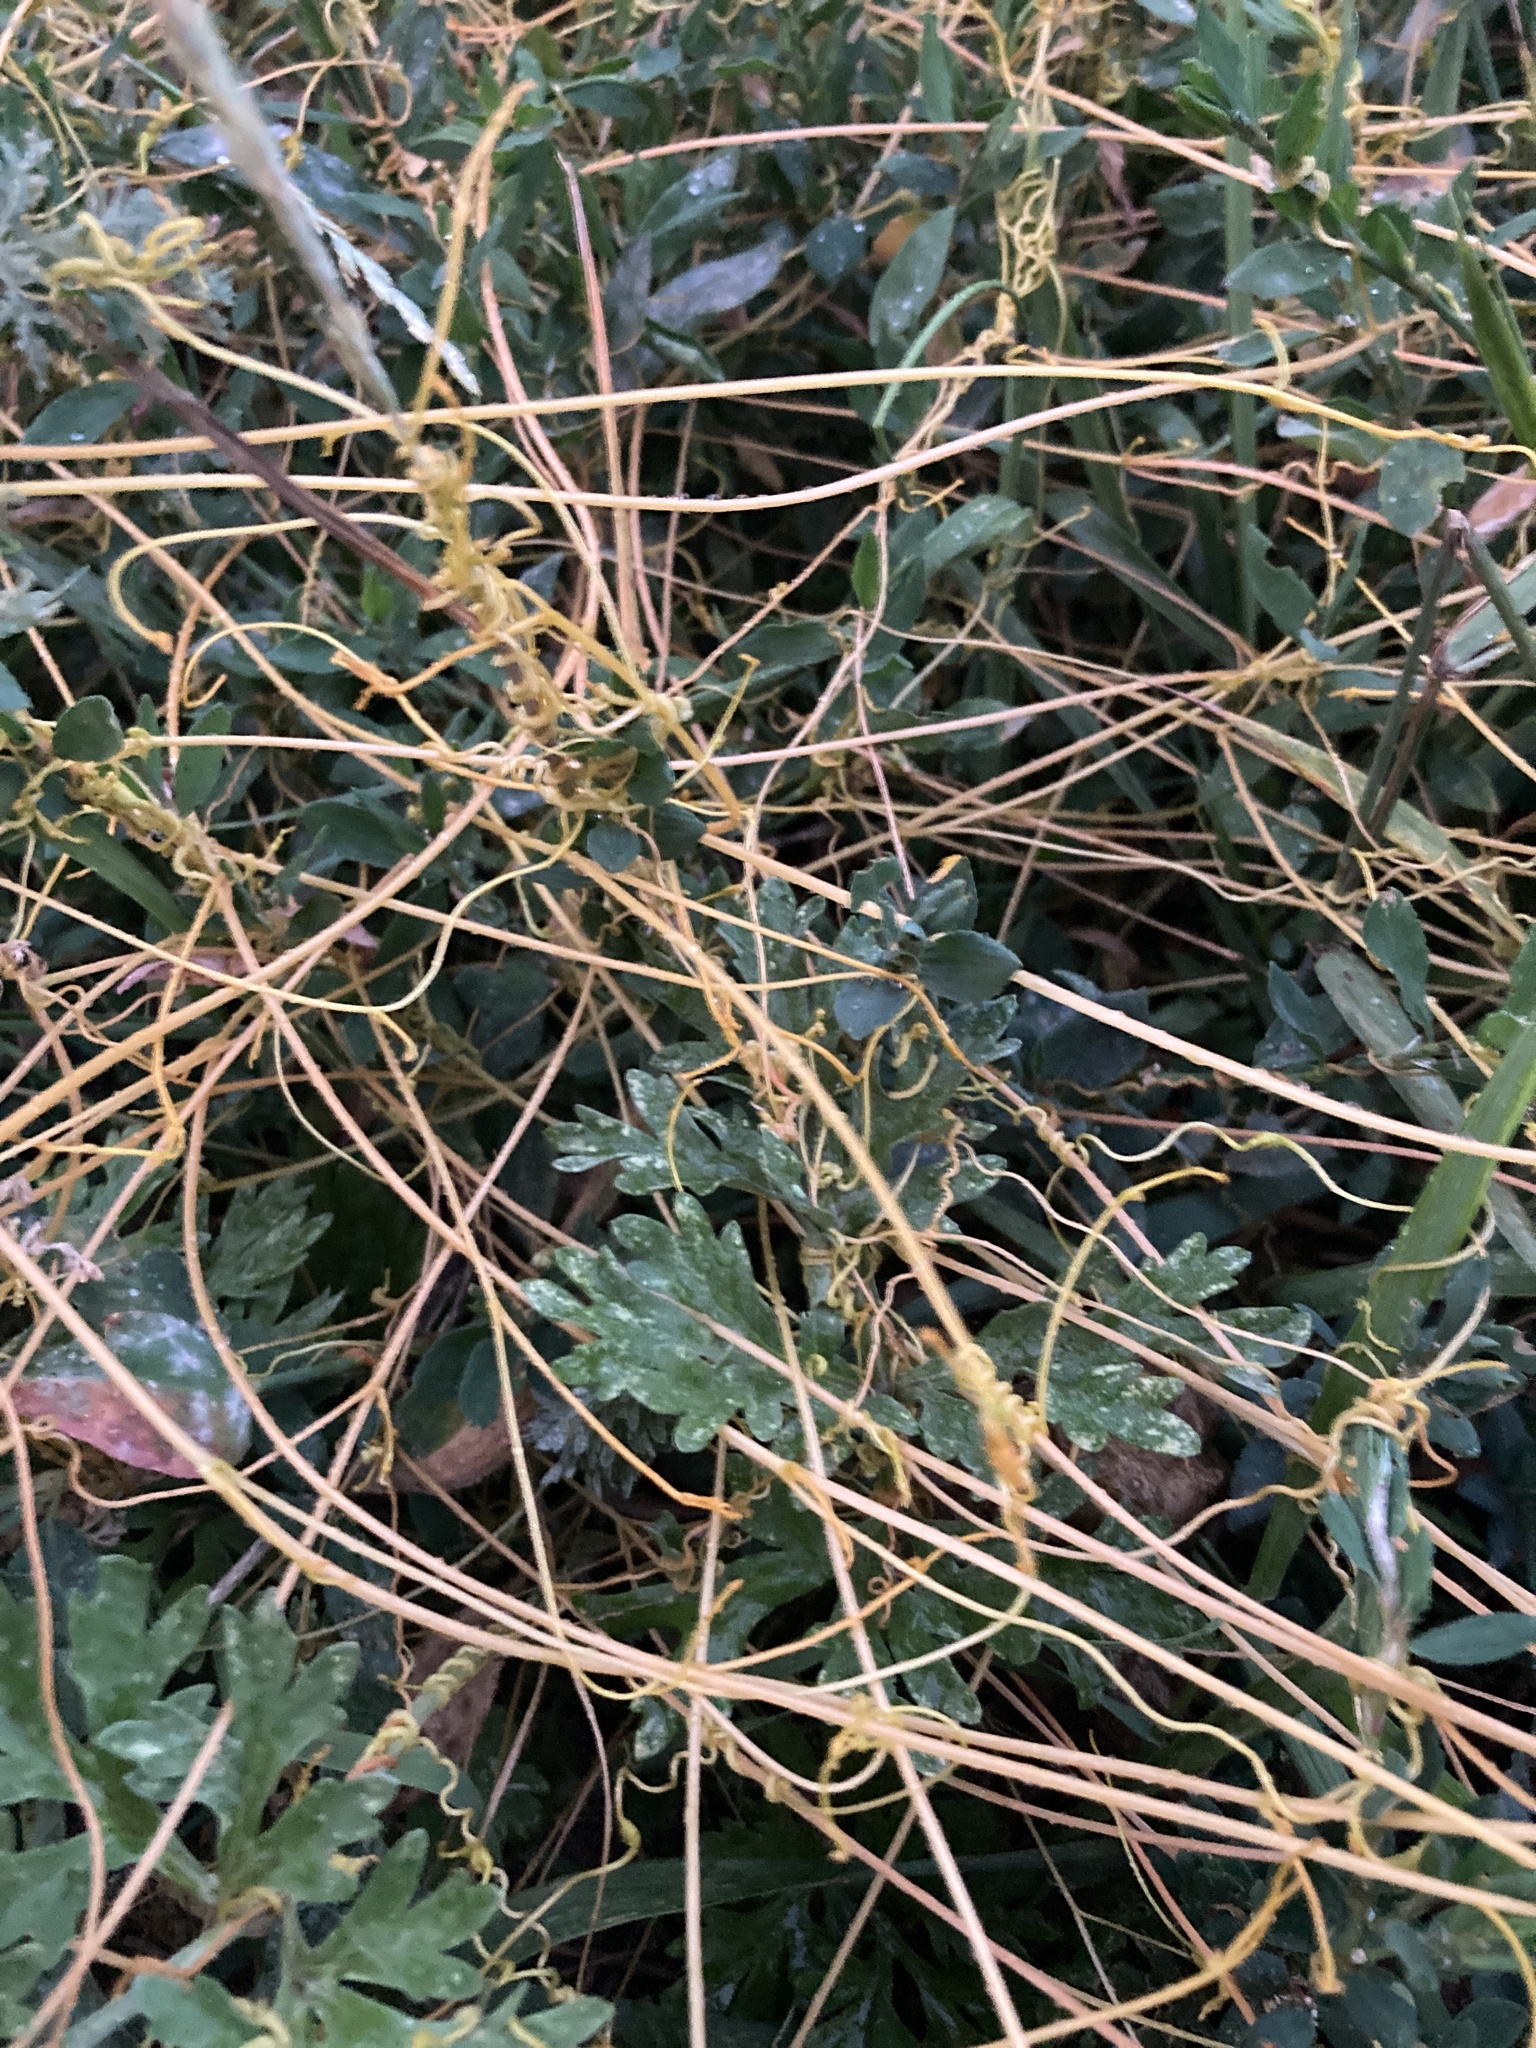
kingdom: Plantae
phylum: Tracheophyta
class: Magnoliopsida
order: Solanales
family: Convolvulaceae
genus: Cuscuta
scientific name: Cuscuta campestris
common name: Yellow dodder
